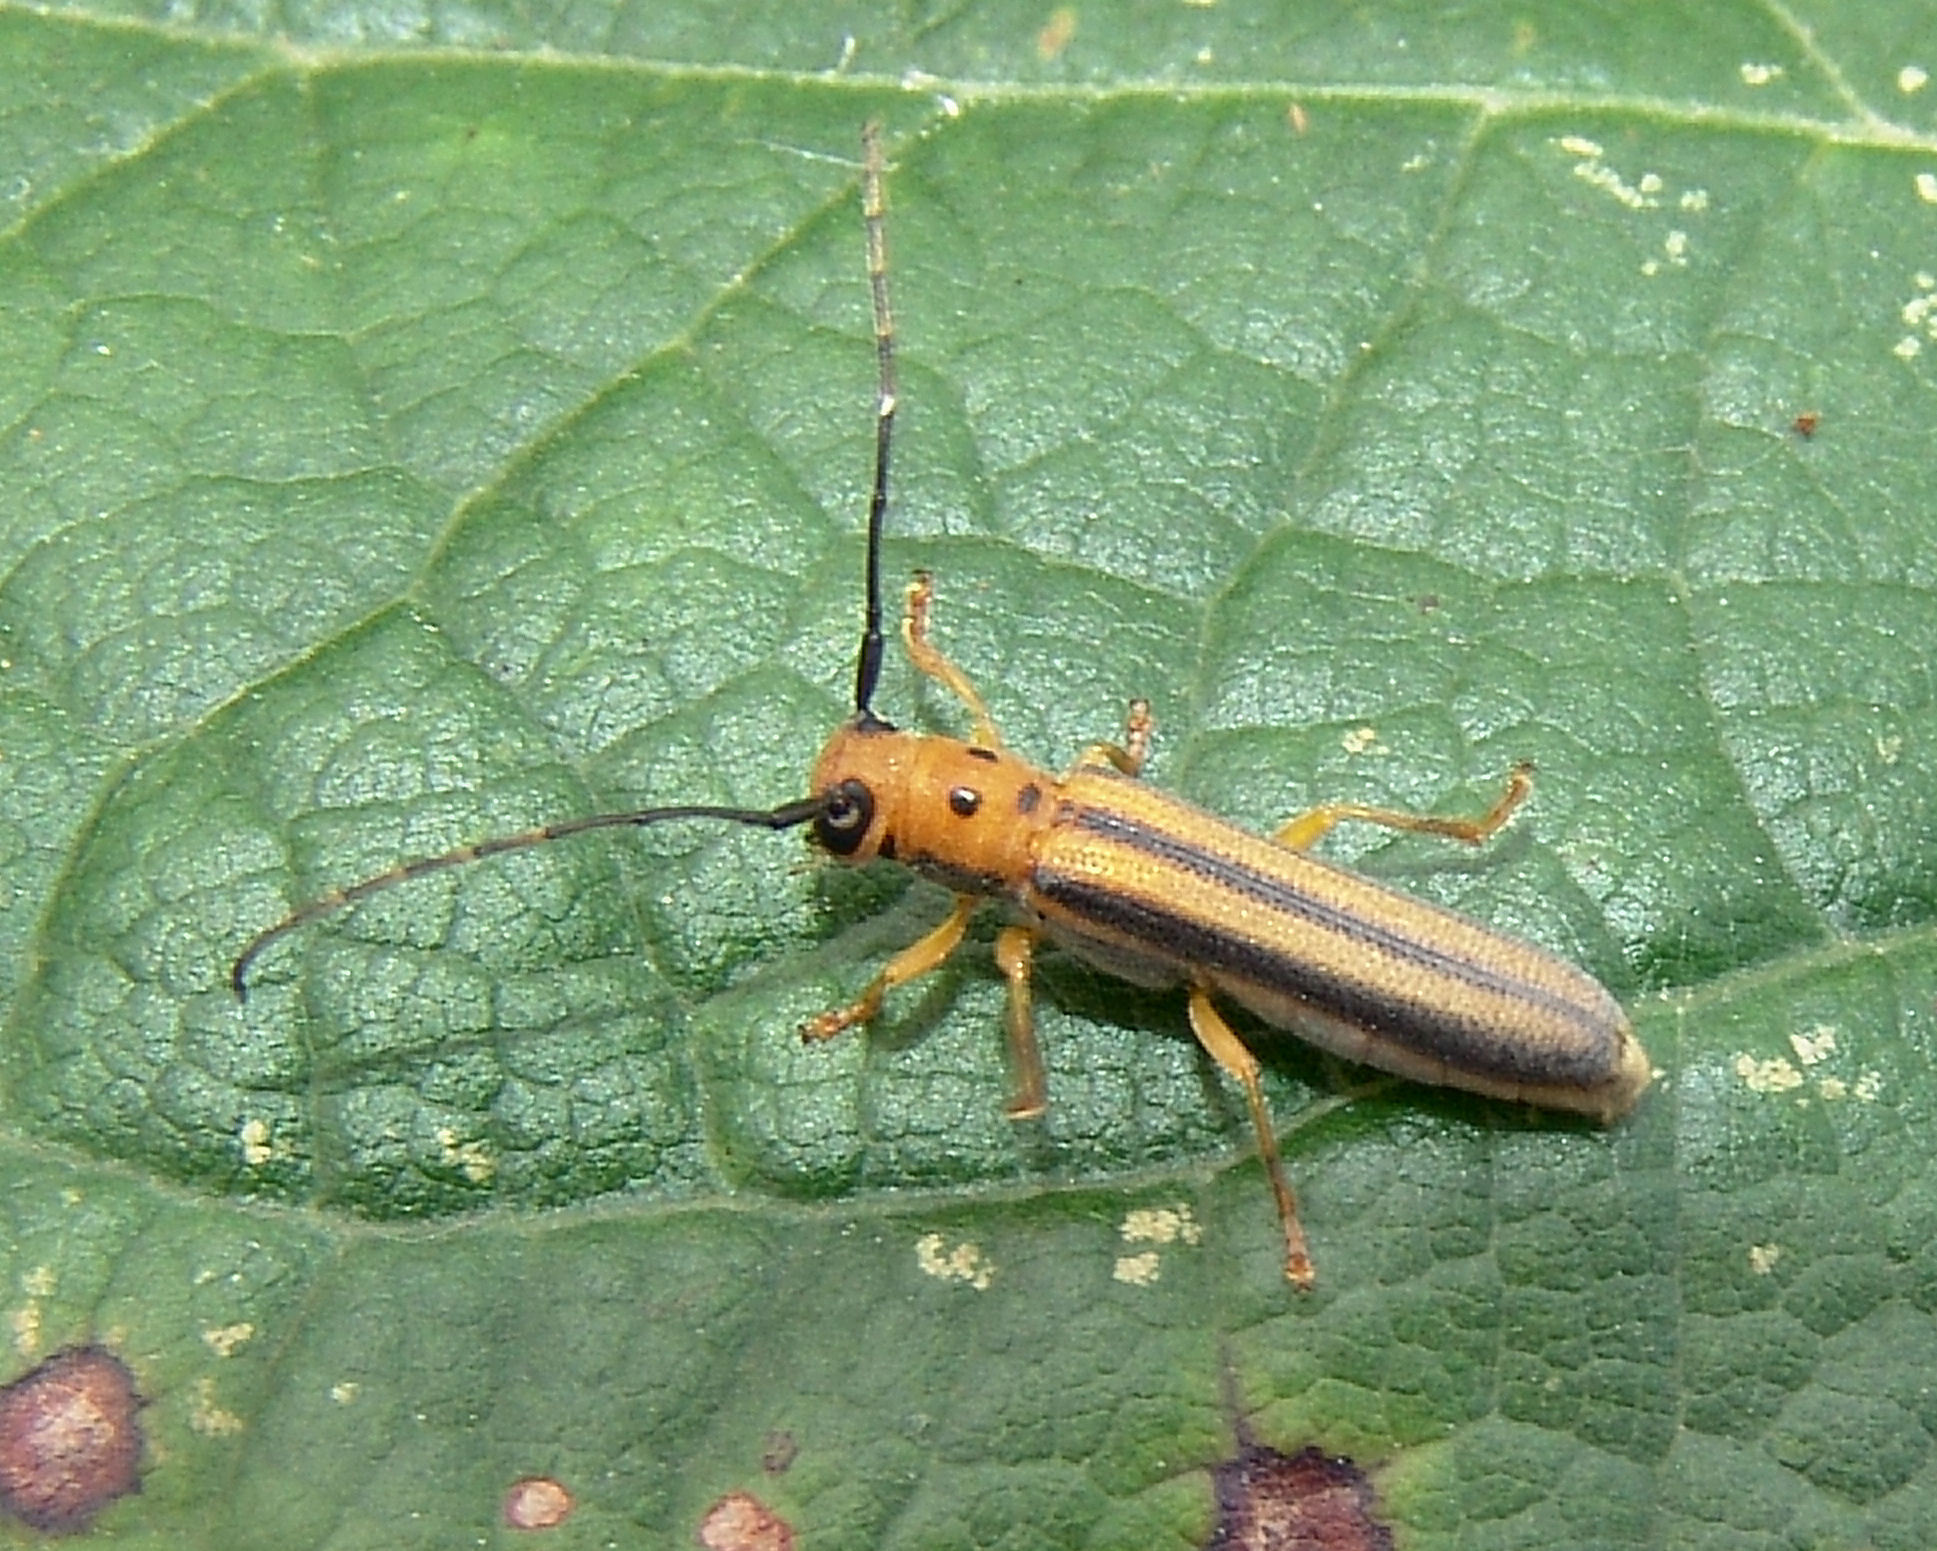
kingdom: Animalia
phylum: Arthropoda
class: Insecta
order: Coleoptera
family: Cerambycidae
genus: Oberea
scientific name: Oberea tripunctata
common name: Dogwood twig borer
